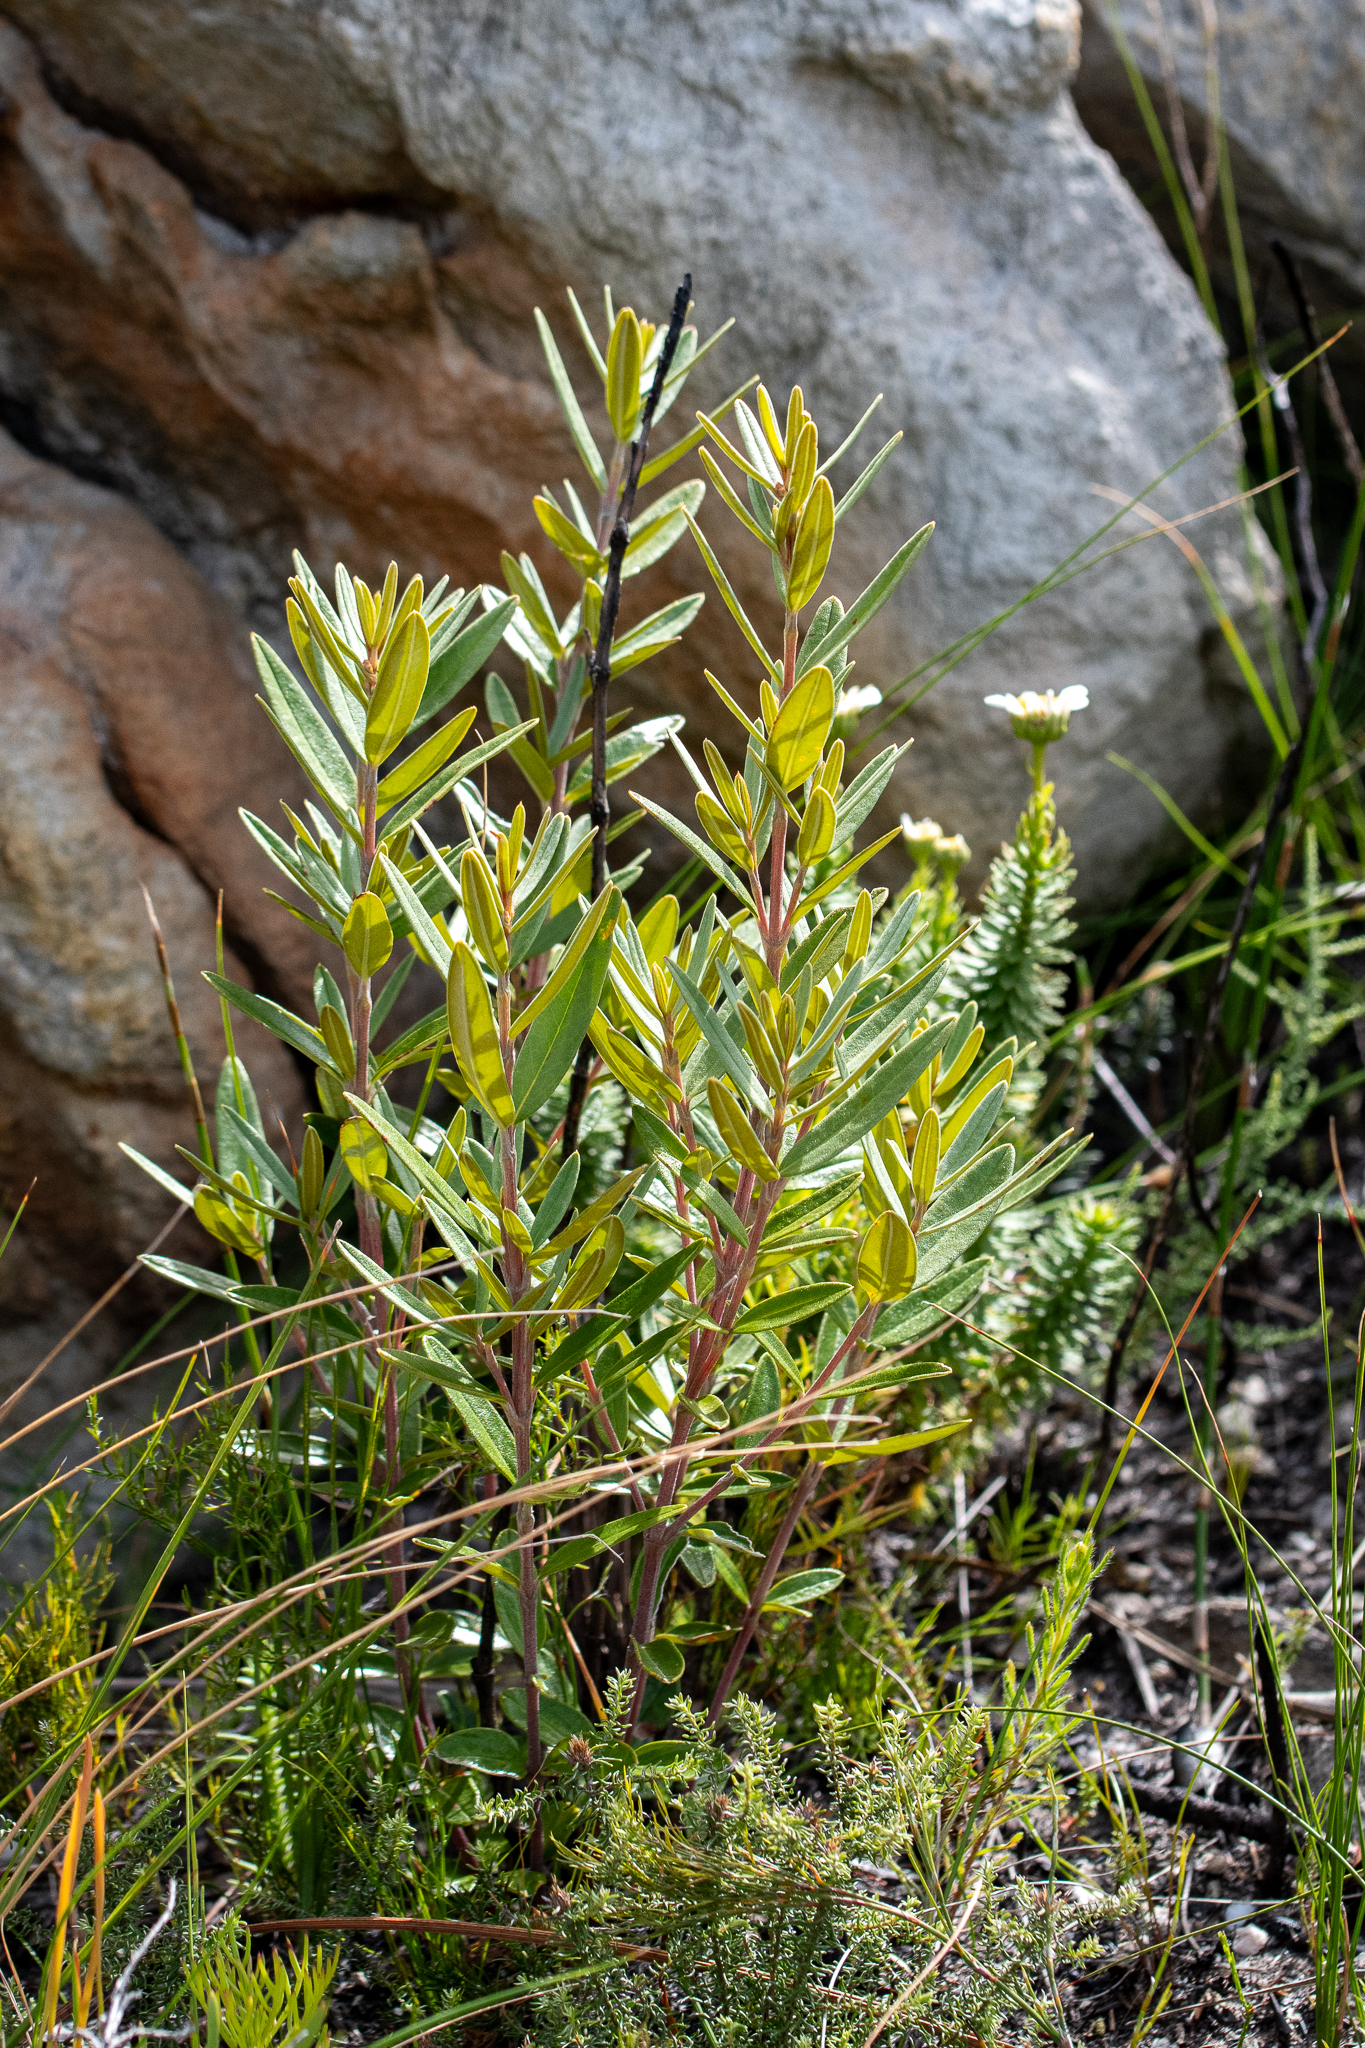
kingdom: Plantae
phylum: Tracheophyta
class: Magnoliopsida
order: Cornales
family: Grubbiaceae
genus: Grubbia
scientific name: Grubbia tomentosa
